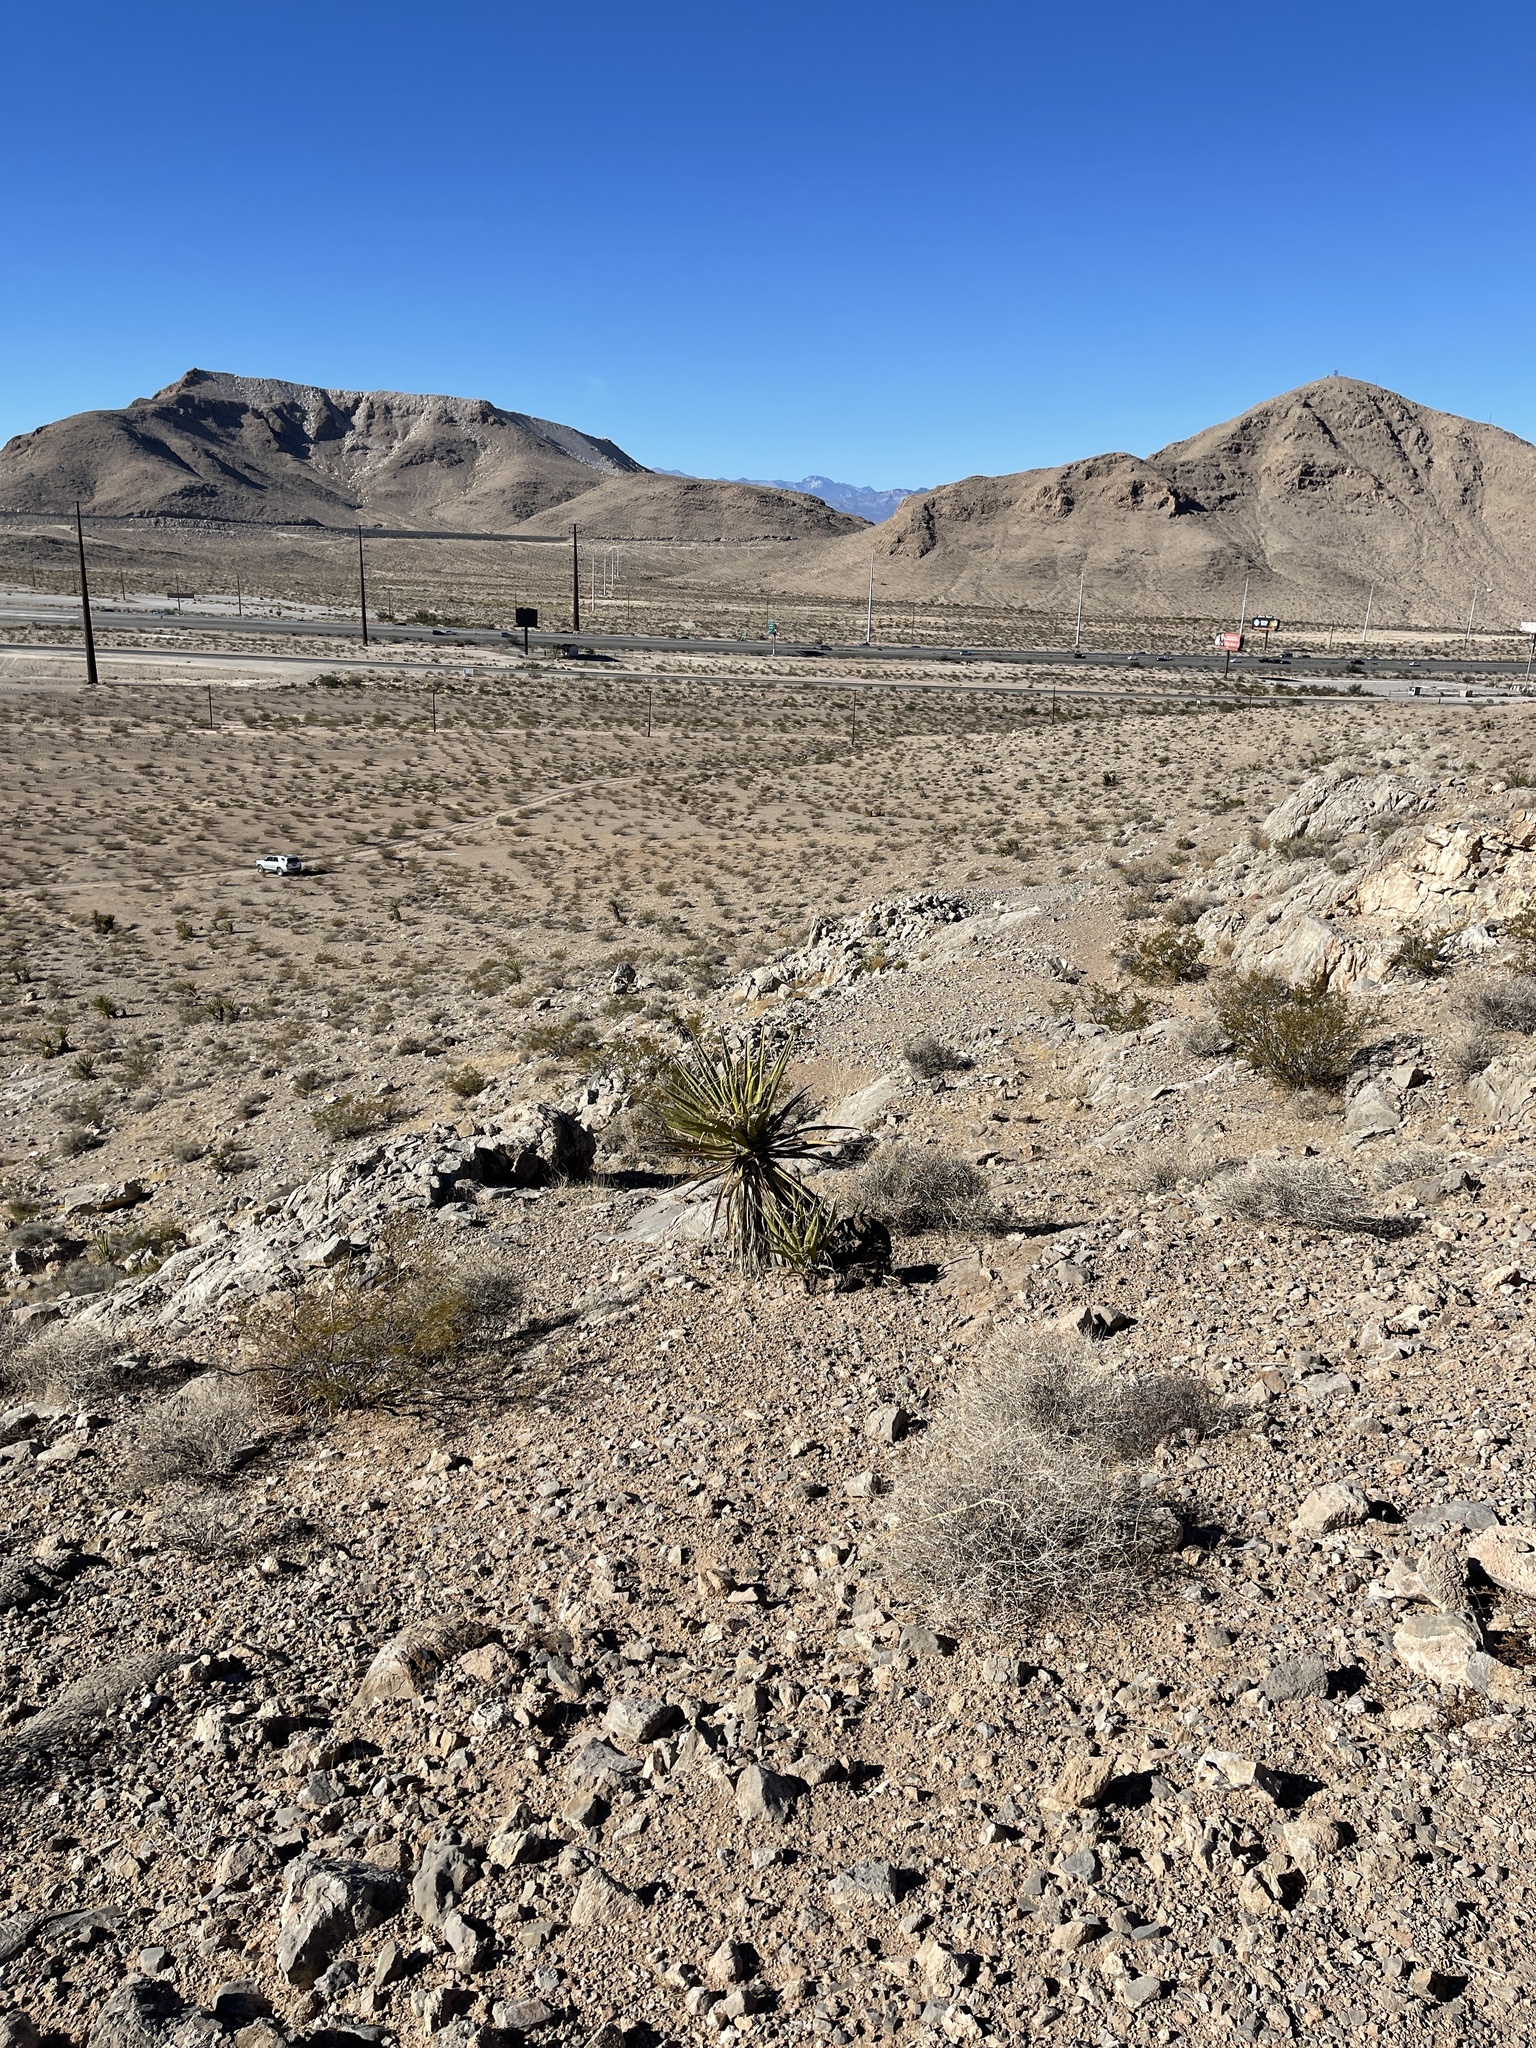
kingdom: Plantae
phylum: Tracheophyta
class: Liliopsida
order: Asparagales
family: Asparagaceae
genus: Yucca
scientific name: Yucca schidigera
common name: Mojave yucca
